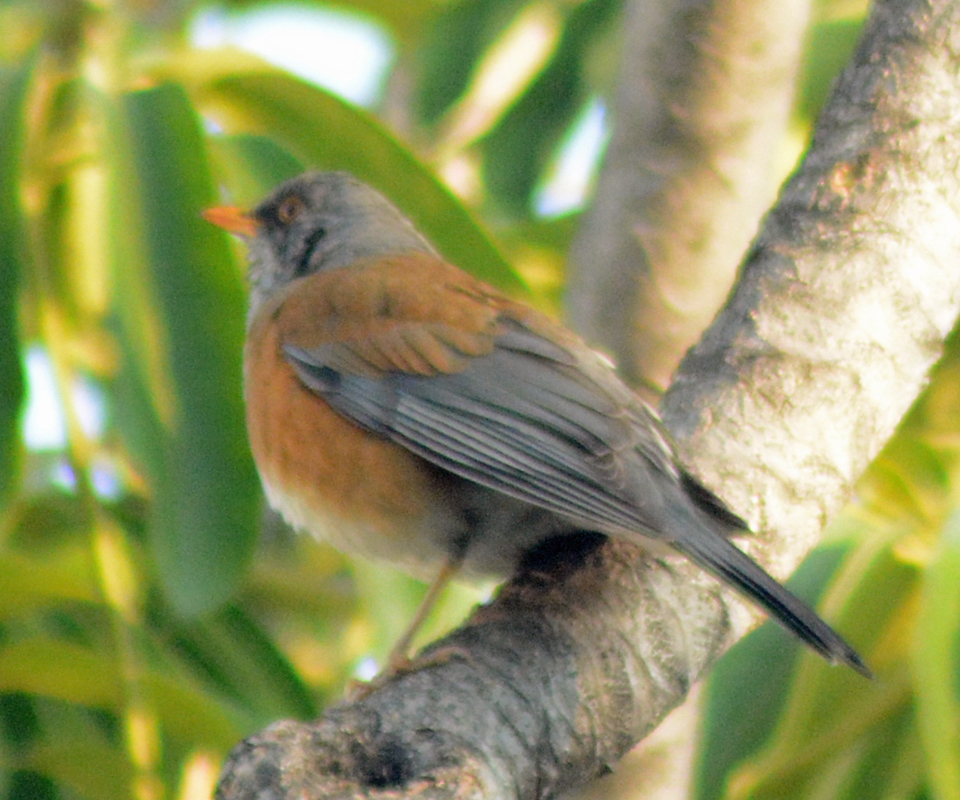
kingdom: Animalia
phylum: Chordata
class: Aves
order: Passeriformes
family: Turdidae
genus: Turdus
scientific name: Turdus rufopalliatus
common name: Rufous-backed robin
